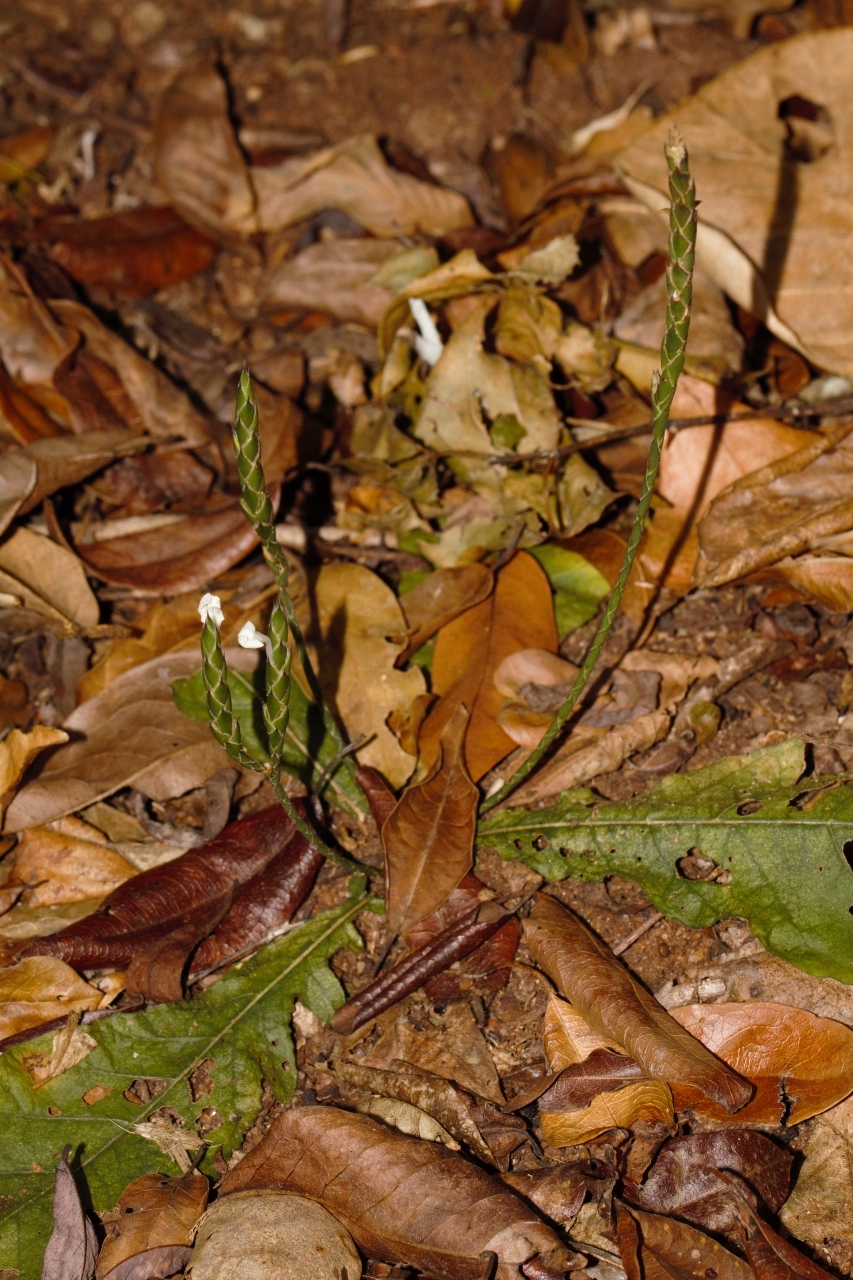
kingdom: Plantae
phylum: Tracheophyta
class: Magnoliopsida
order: Lamiales
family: Acanthaceae
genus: Elytraria
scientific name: Elytraria acaulis
